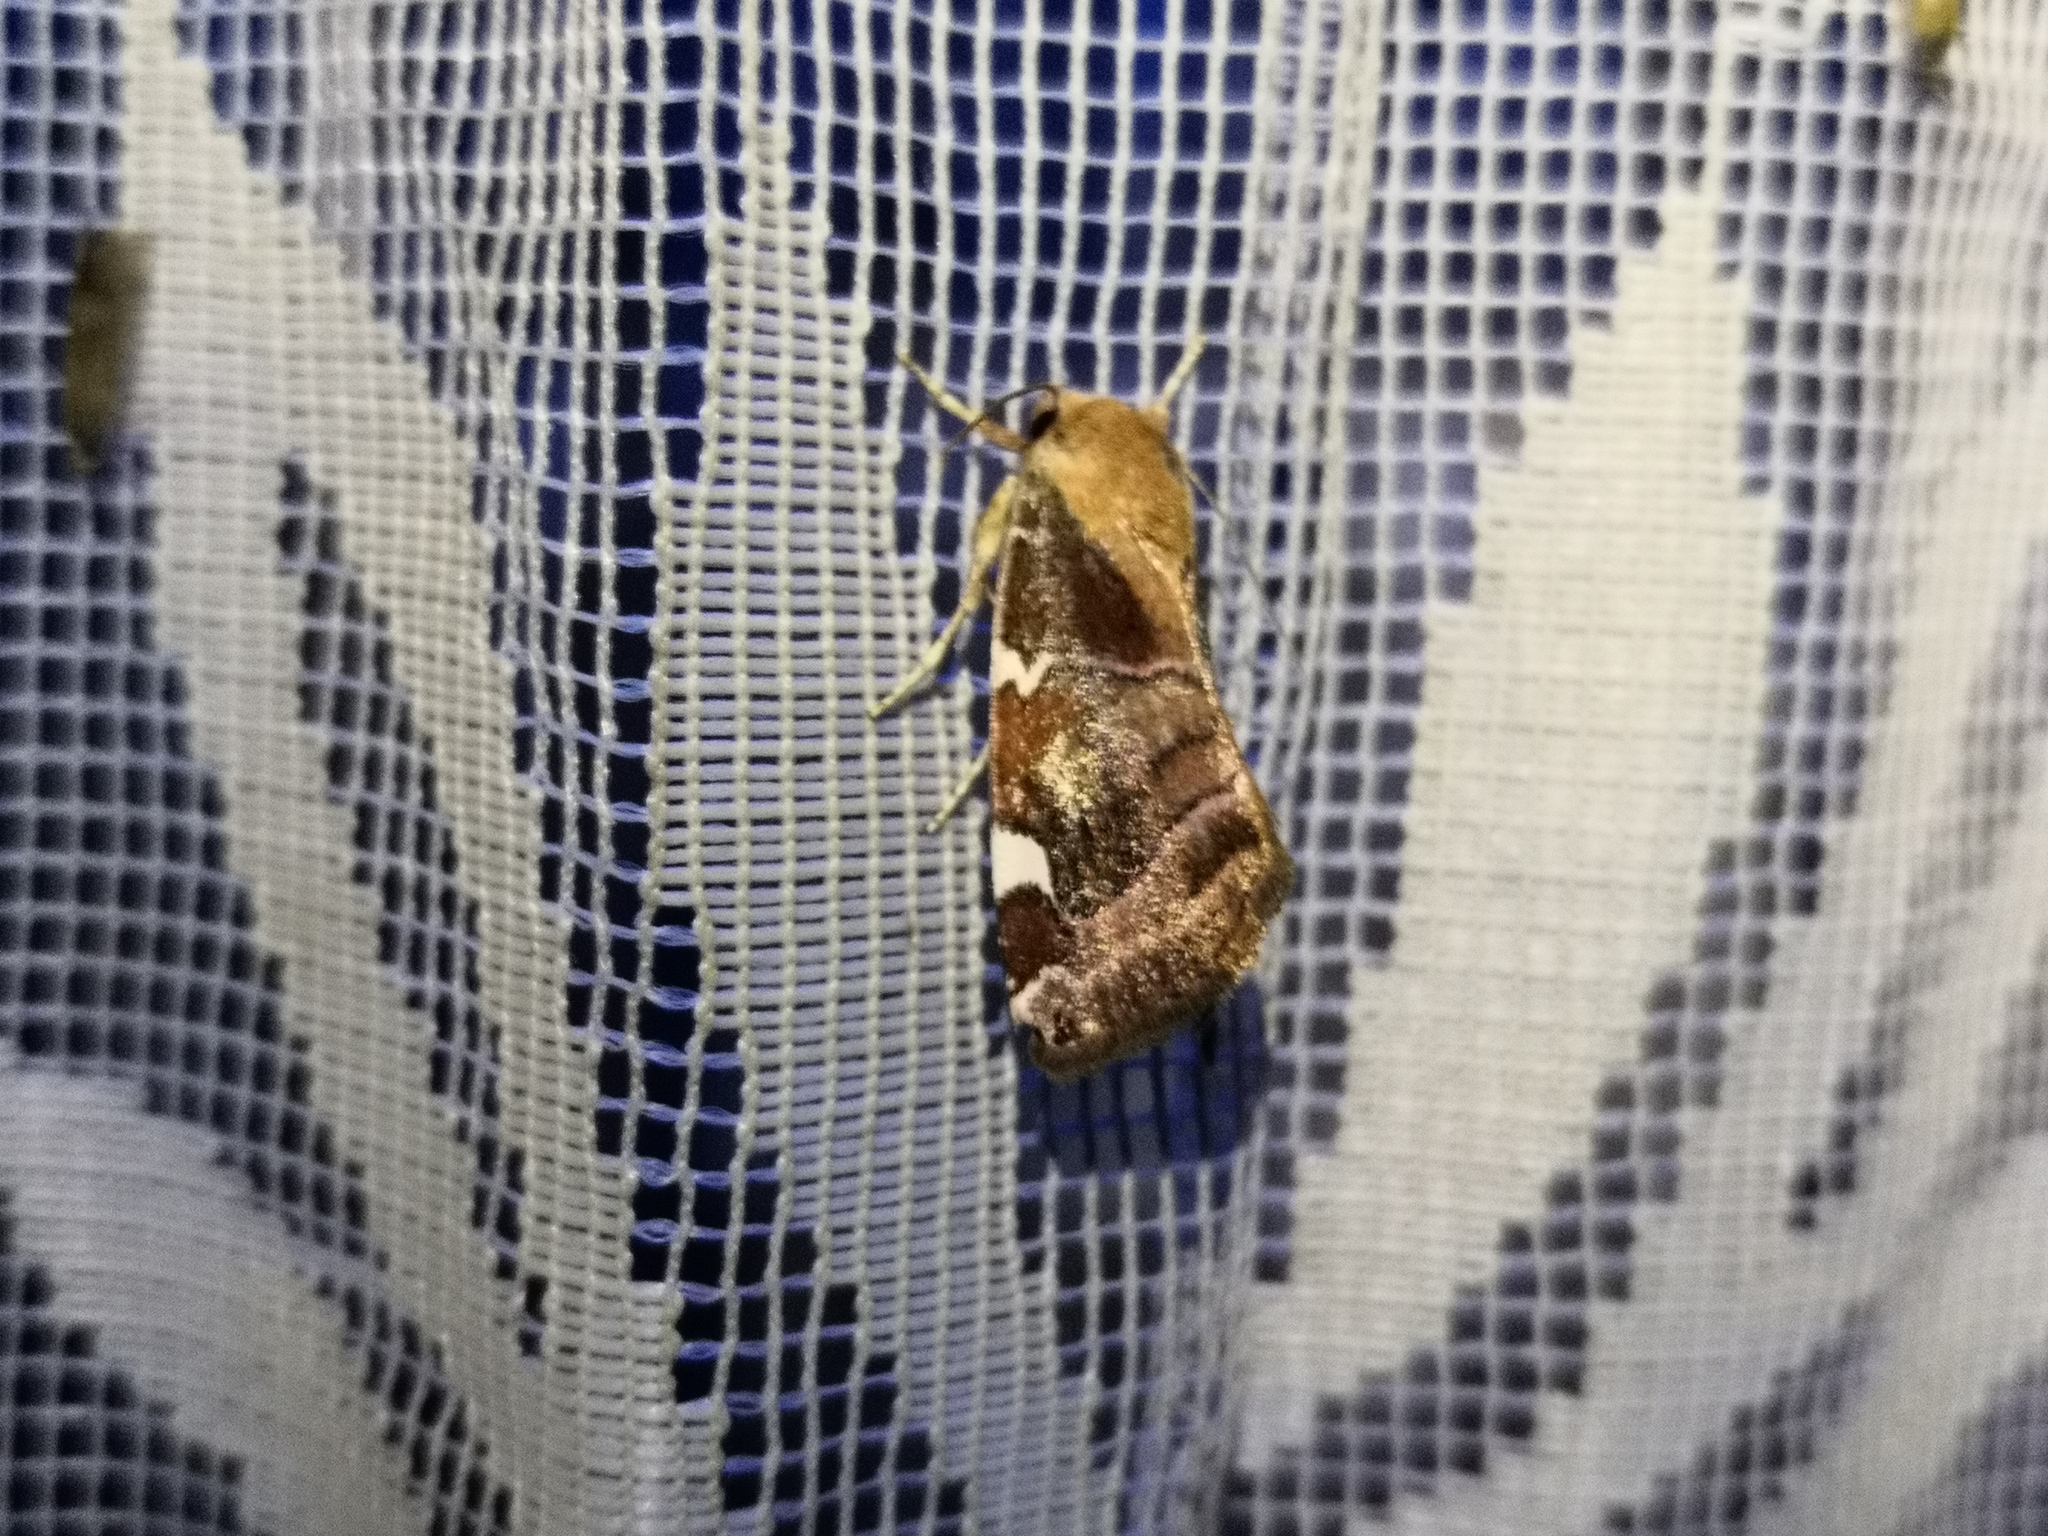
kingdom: Animalia
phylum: Arthropoda
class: Insecta
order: Lepidoptera
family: Noctuidae
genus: Cosmia
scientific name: Cosmia diffinis
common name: White-spotted pinion
